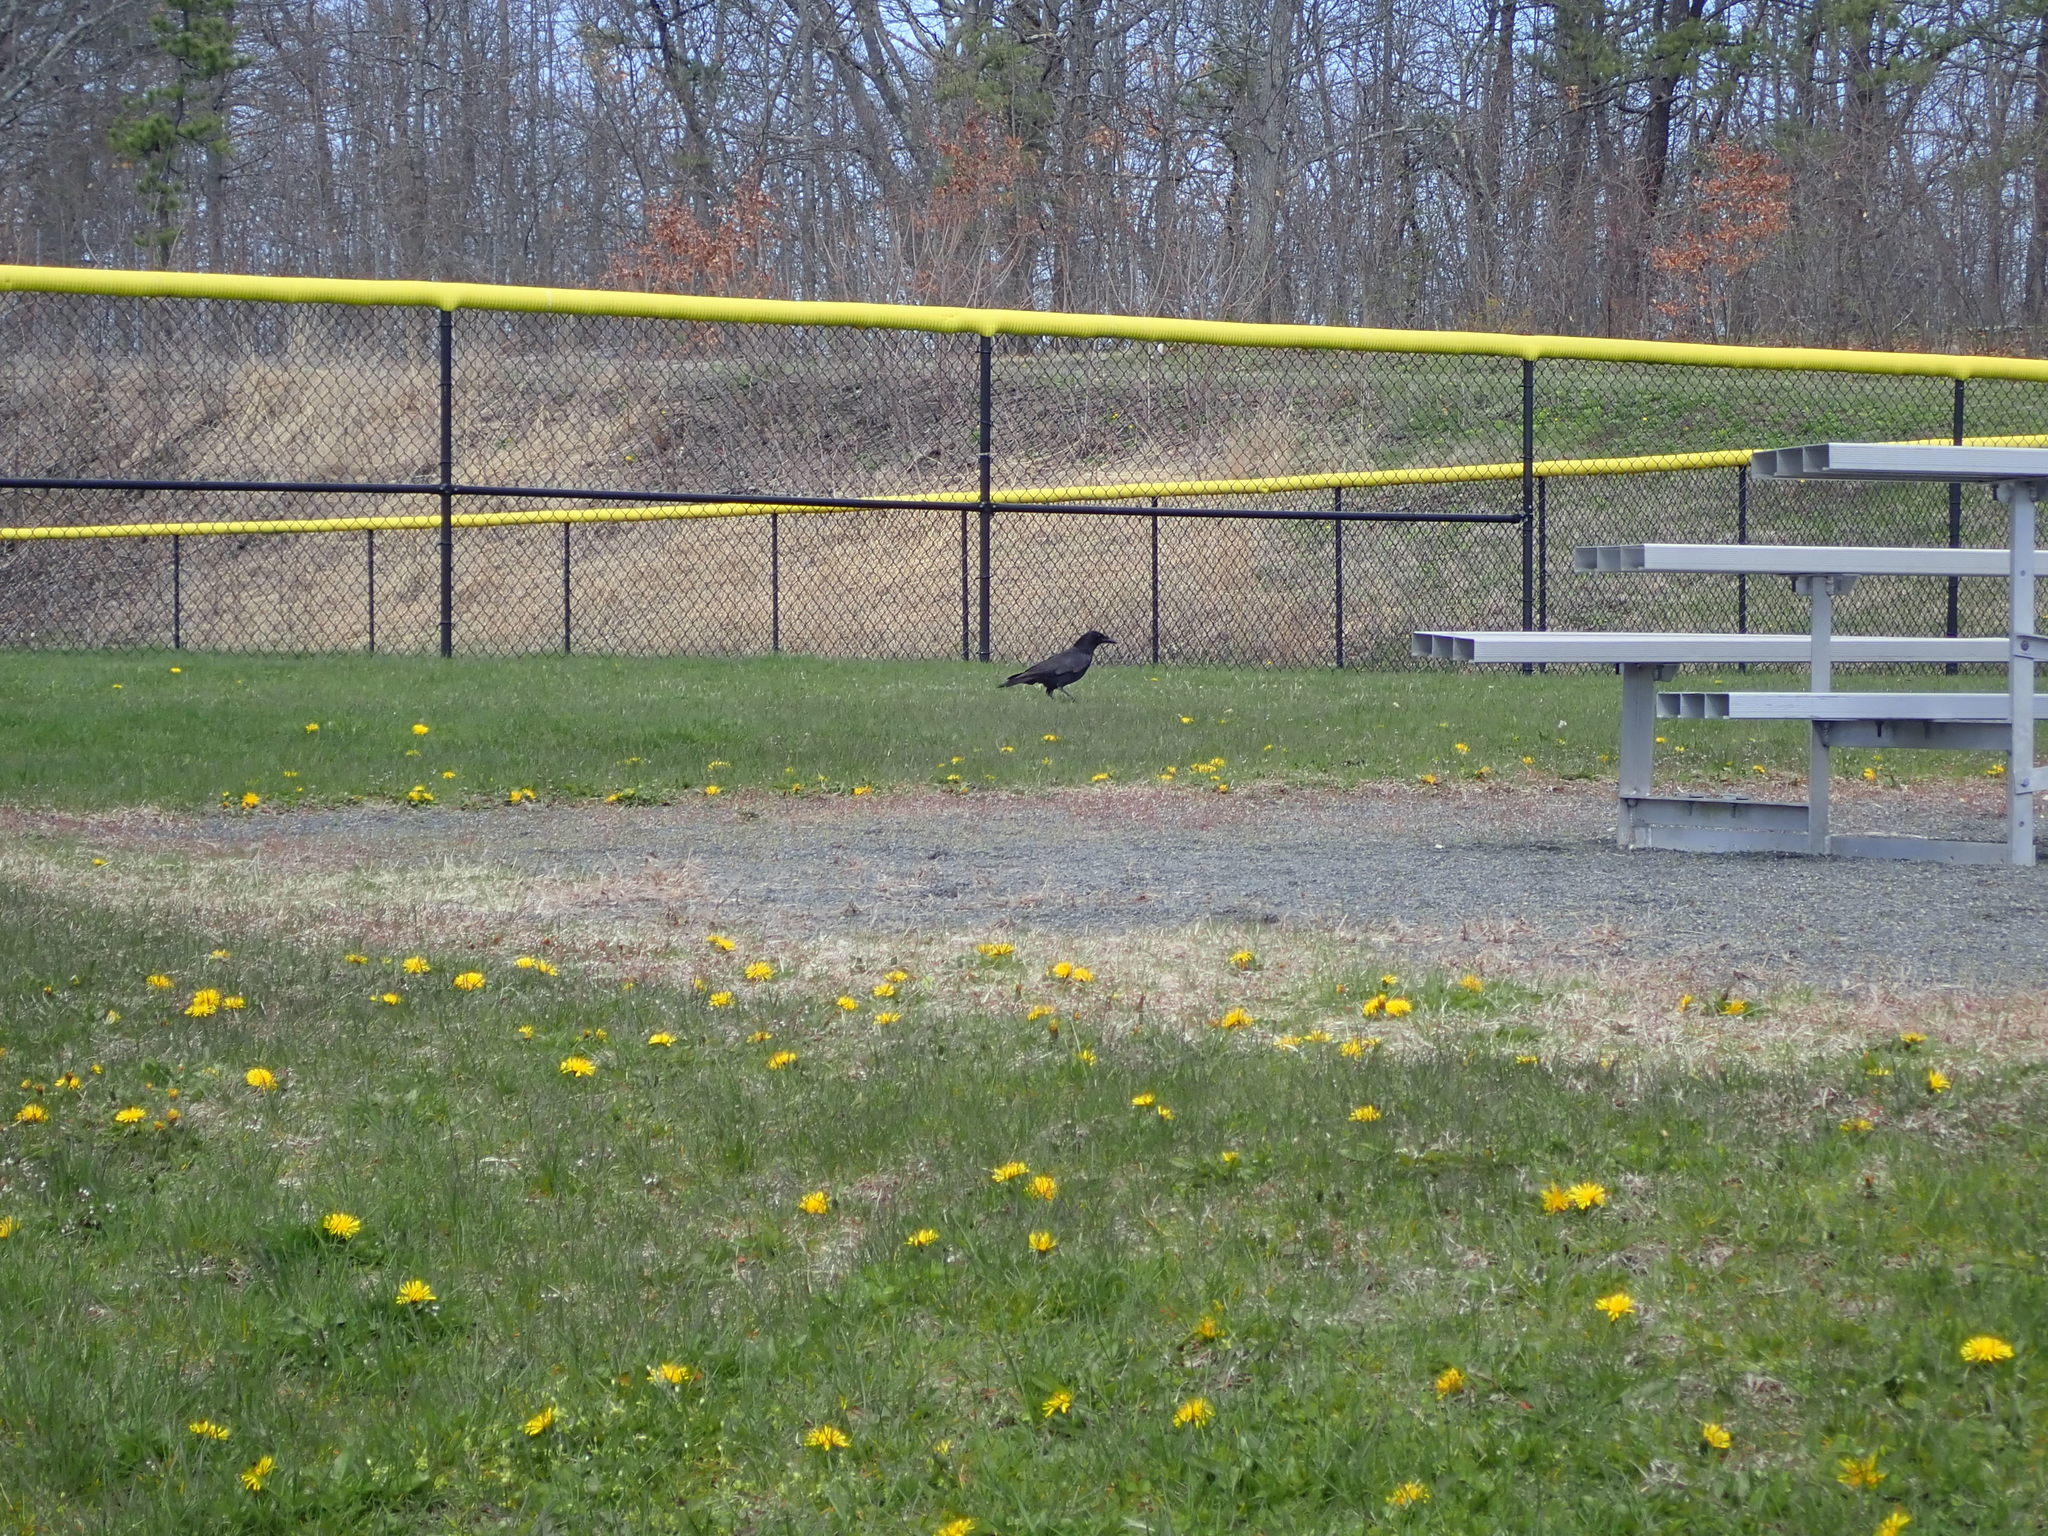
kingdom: Animalia
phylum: Chordata
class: Aves
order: Passeriformes
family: Corvidae
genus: Corvus
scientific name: Corvus brachyrhynchos
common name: American crow
